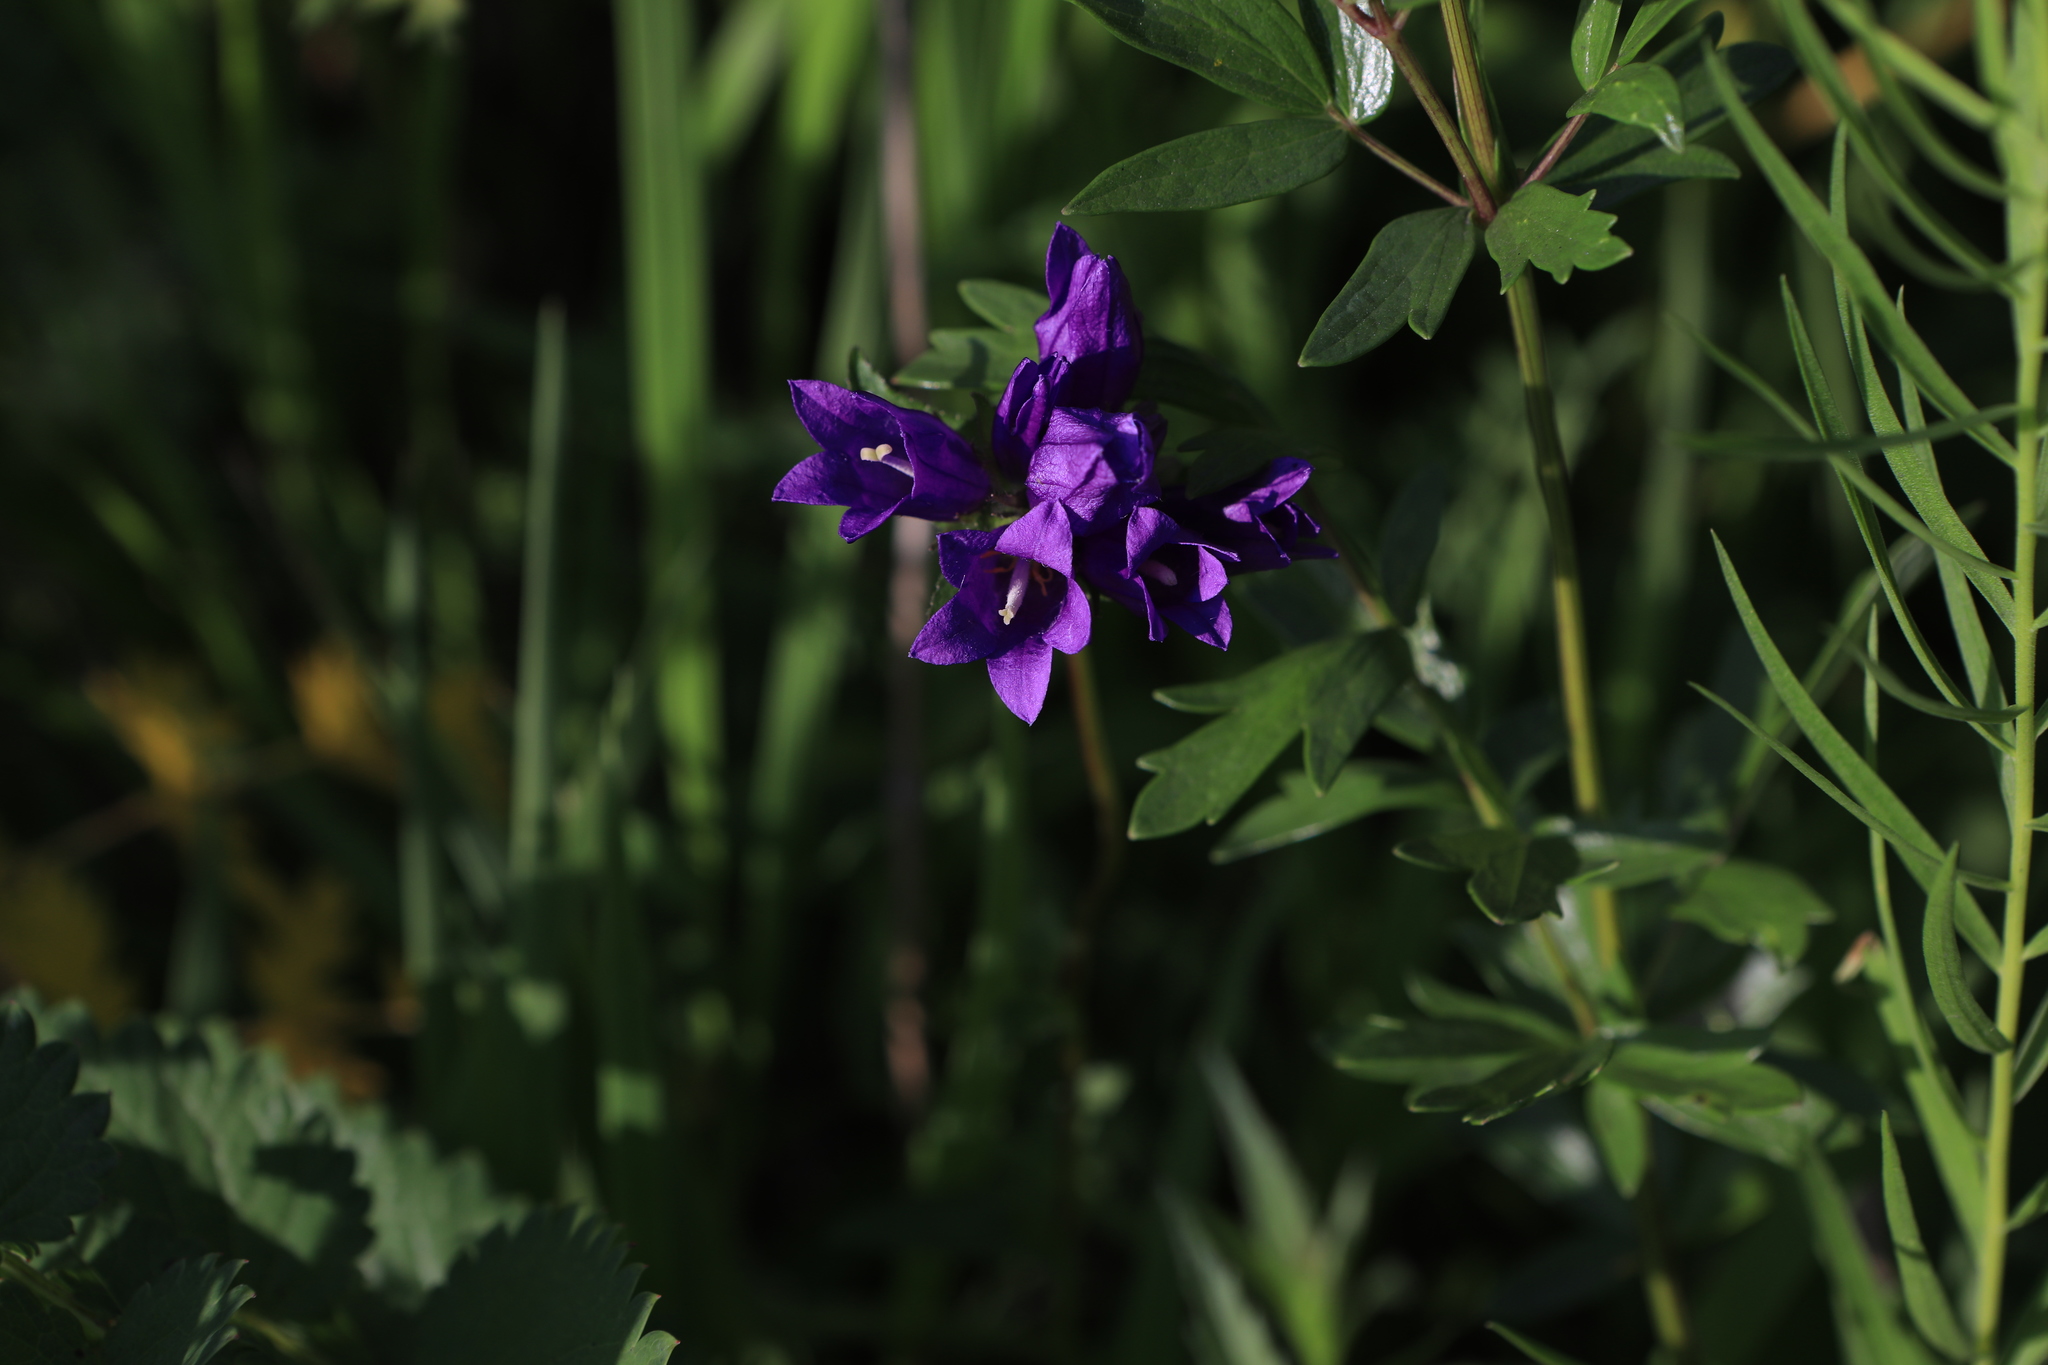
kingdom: Plantae
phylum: Tracheophyta
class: Magnoliopsida
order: Asterales
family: Campanulaceae
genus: Campanula
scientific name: Campanula glomerata
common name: Clustered bellflower
